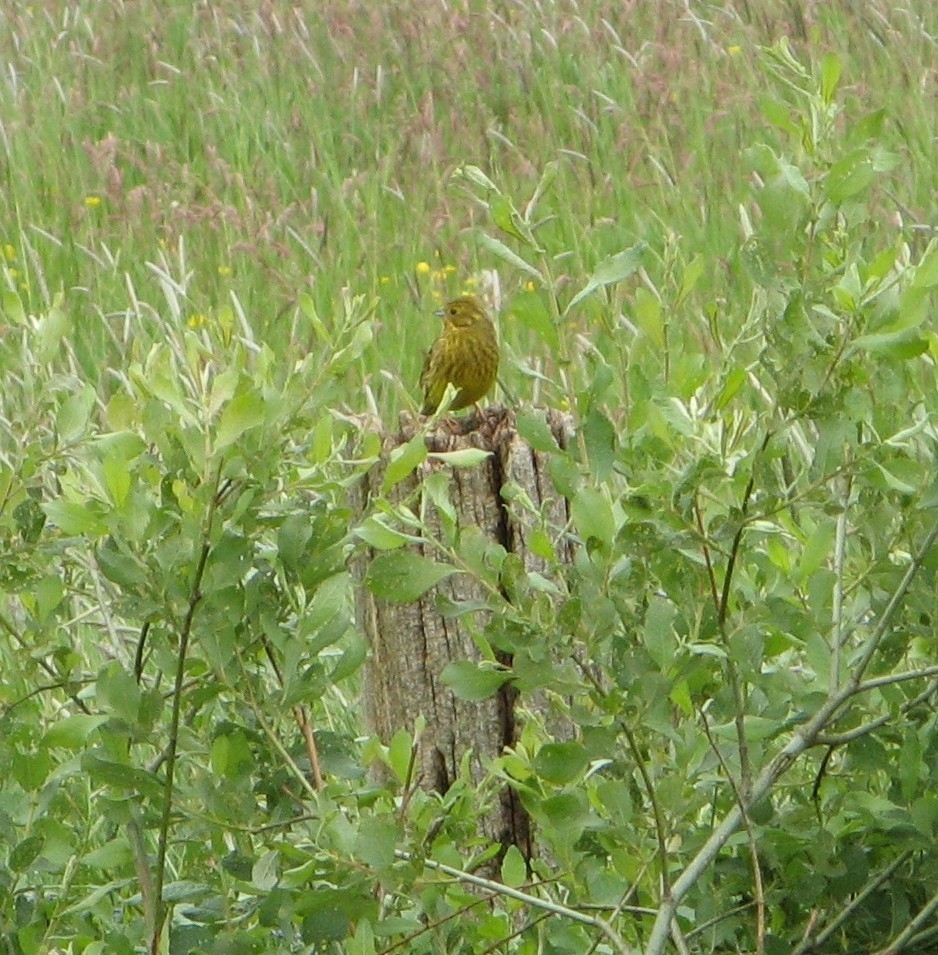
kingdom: Animalia
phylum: Chordata
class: Aves
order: Passeriformes
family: Emberizidae
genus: Emberiza
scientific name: Emberiza citrinella
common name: Yellowhammer
